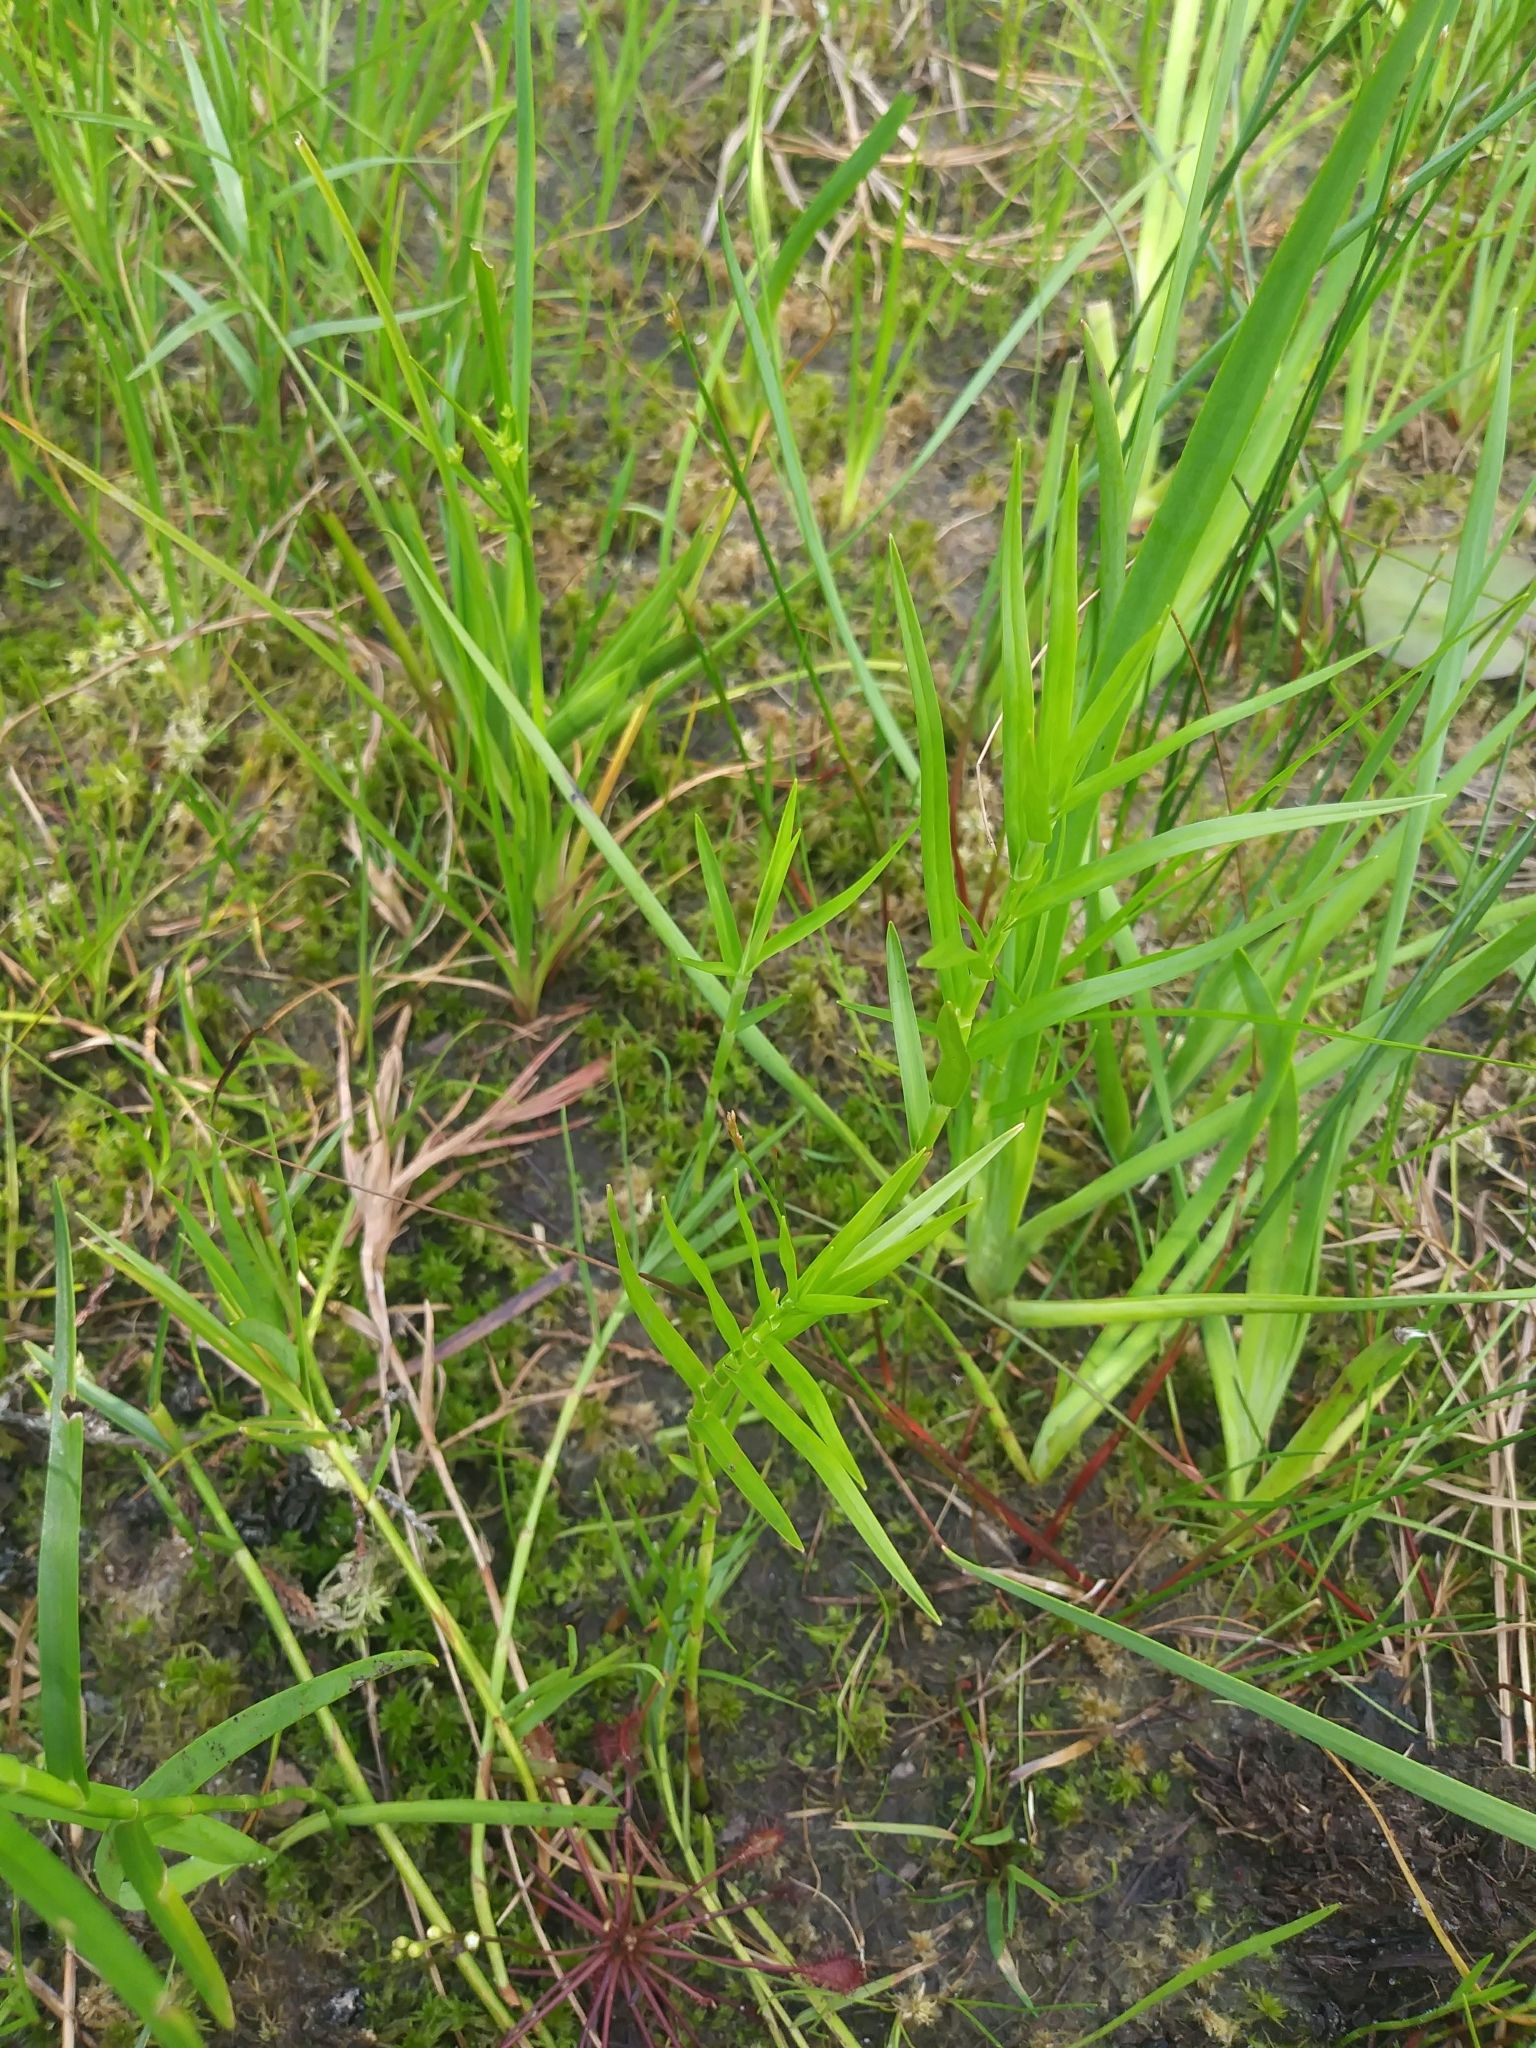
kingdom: Plantae
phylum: Tracheophyta
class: Liliopsida
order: Poales
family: Cyperaceae
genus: Dulichium
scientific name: Dulichium arundinaceum
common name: Three-way sedge
